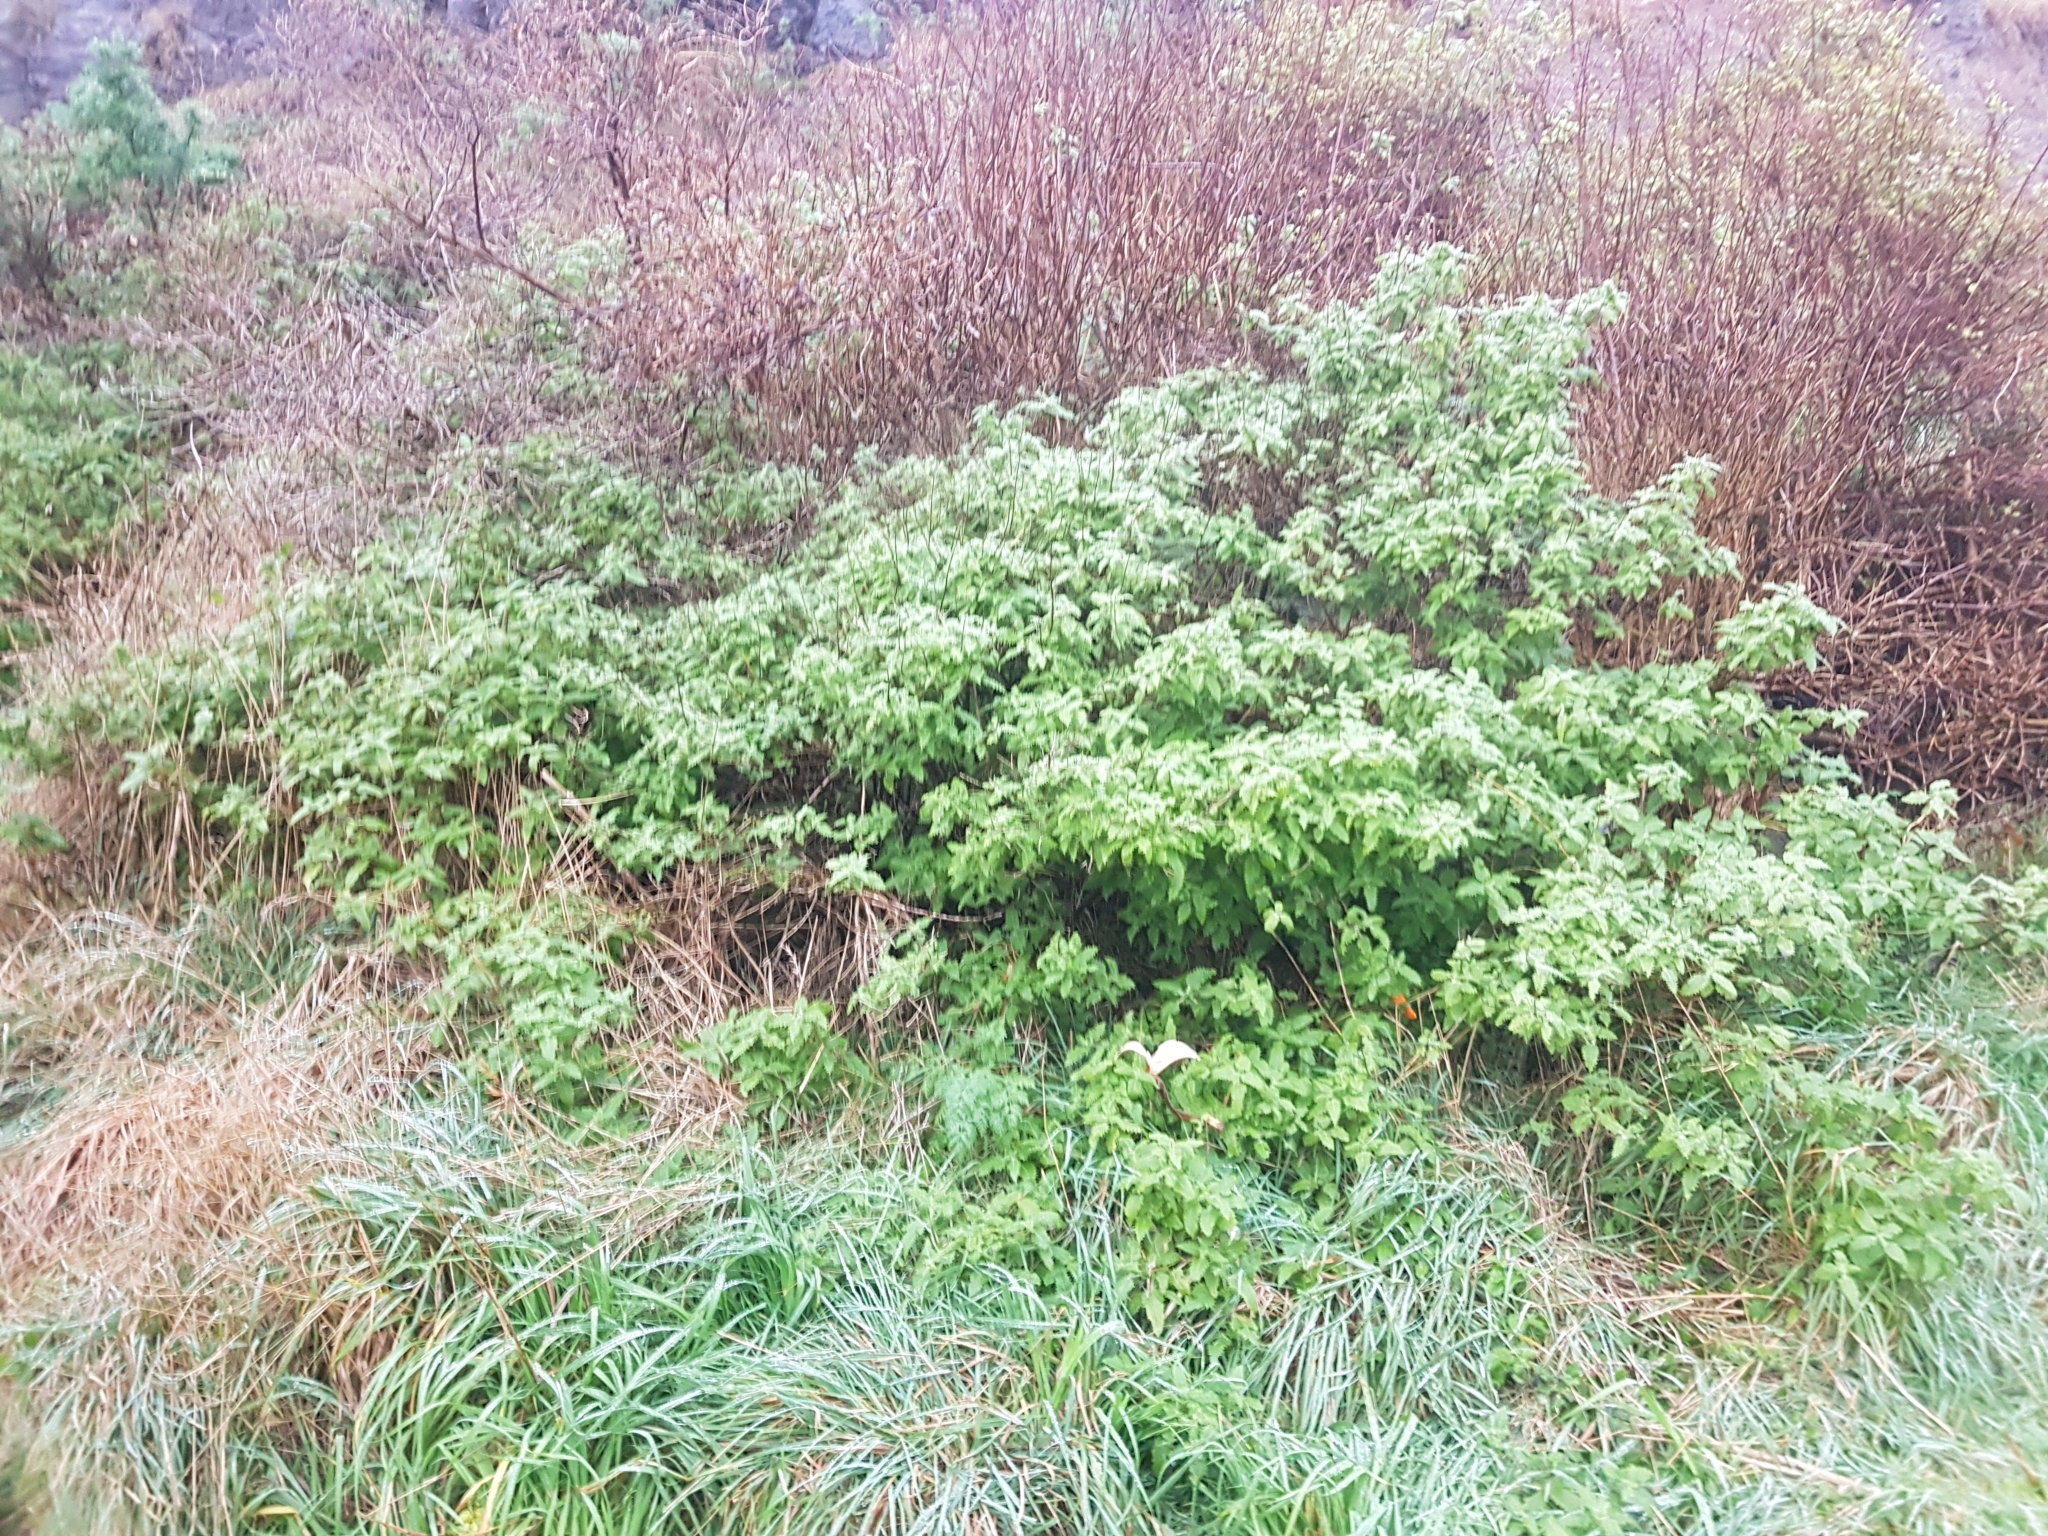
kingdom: Plantae
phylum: Tracheophyta
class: Magnoliopsida
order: Rosales
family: Urticaceae
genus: Urtica
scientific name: Urtica ferox
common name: Tree nettle
